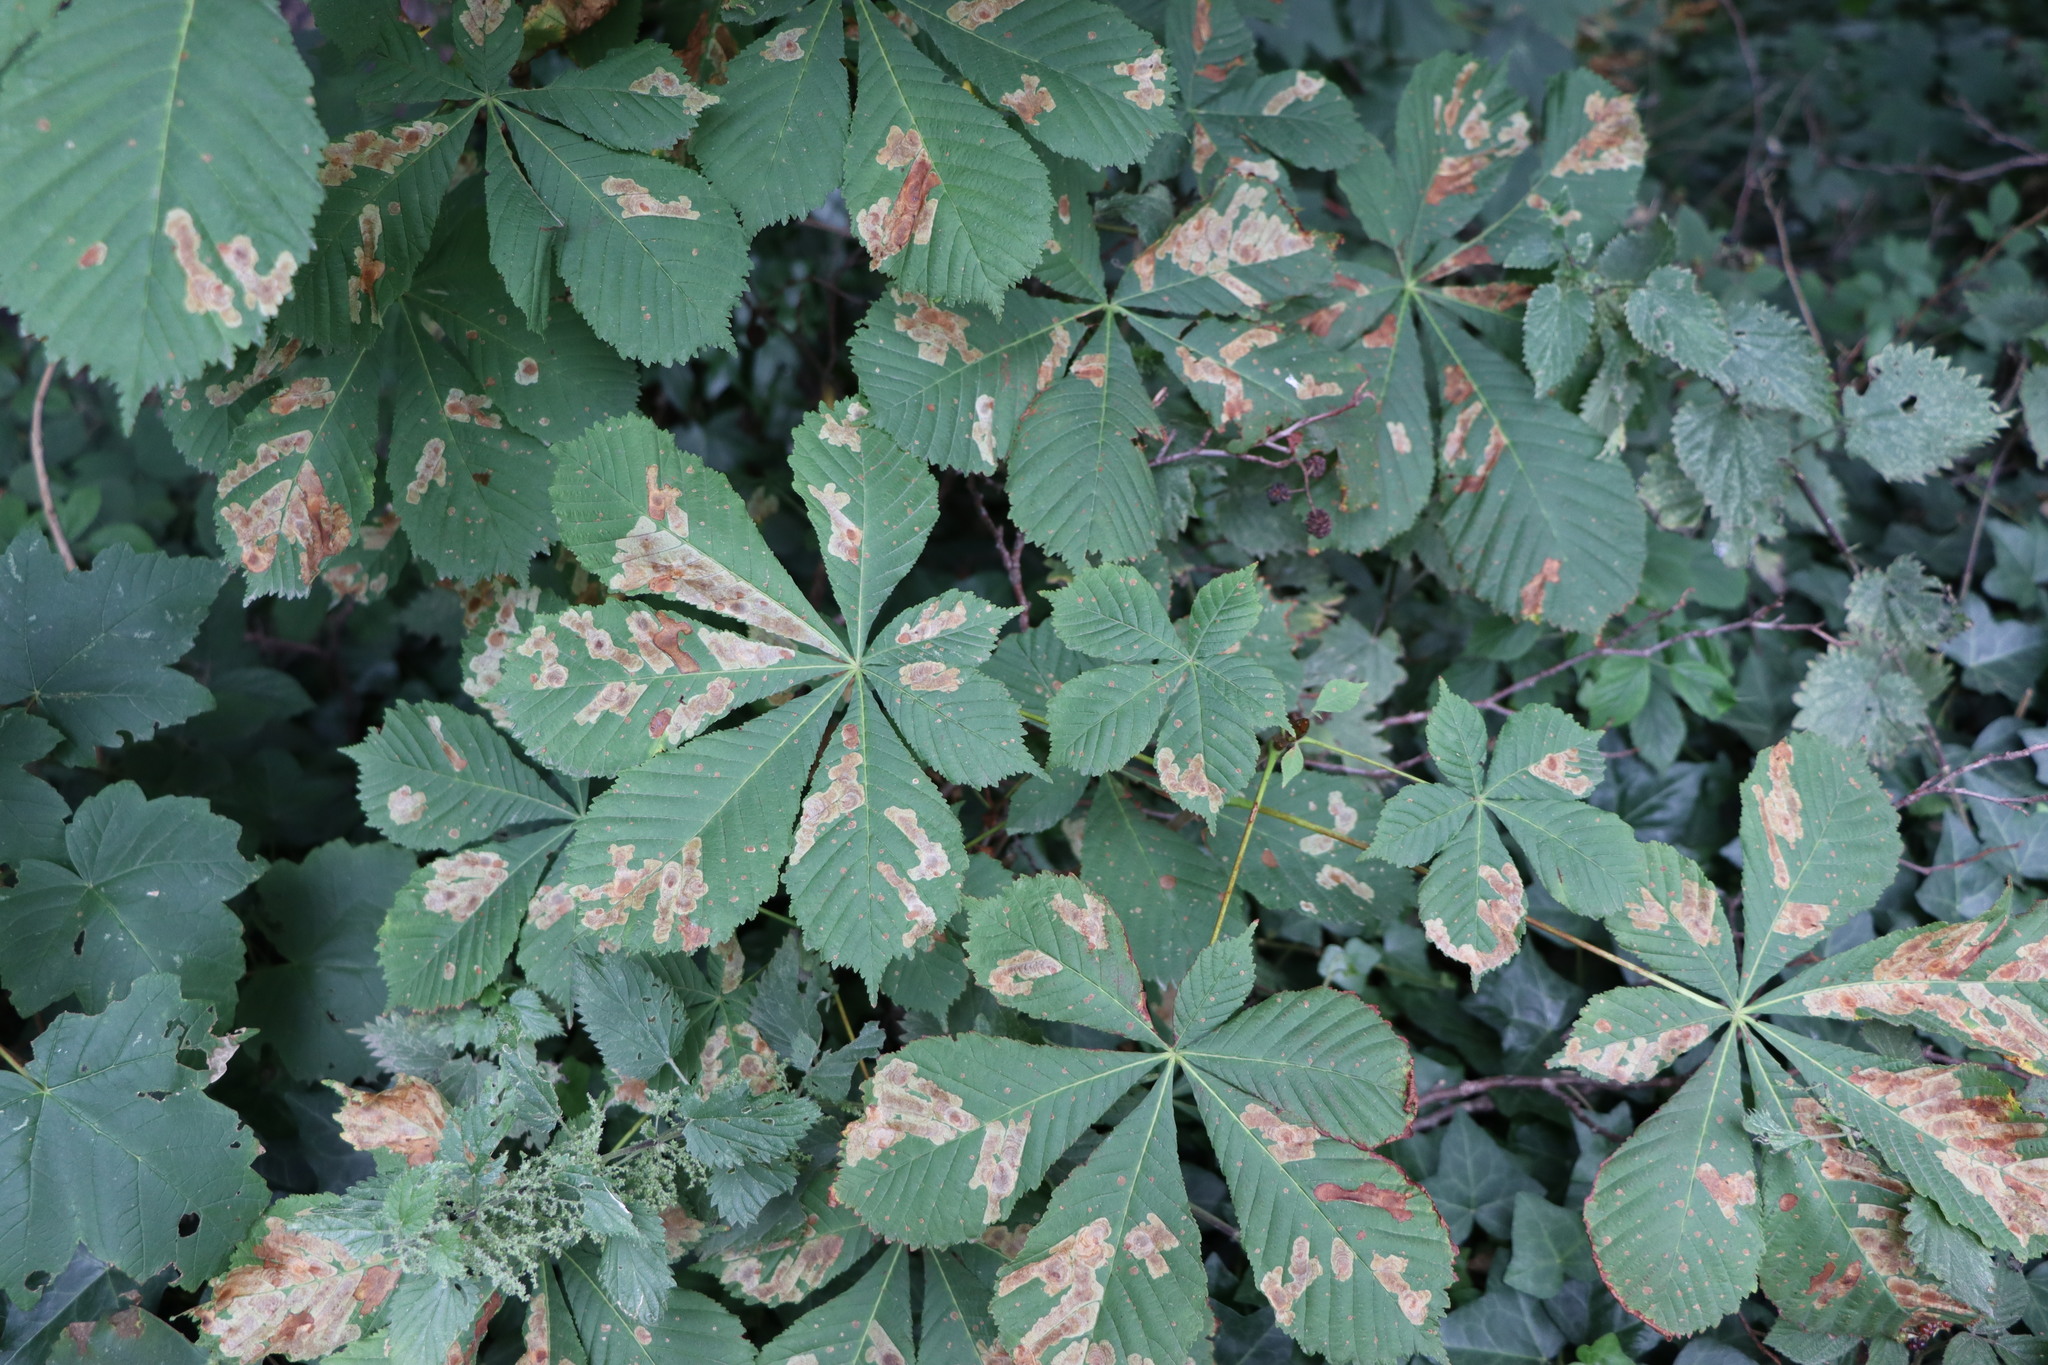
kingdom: Animalia
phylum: Arthropoda
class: Insecta
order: Lepidoptera
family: Gracillariidae
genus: Cameraria
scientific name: Cameraria ohridella
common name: Horse-chestnut leaf-miner
